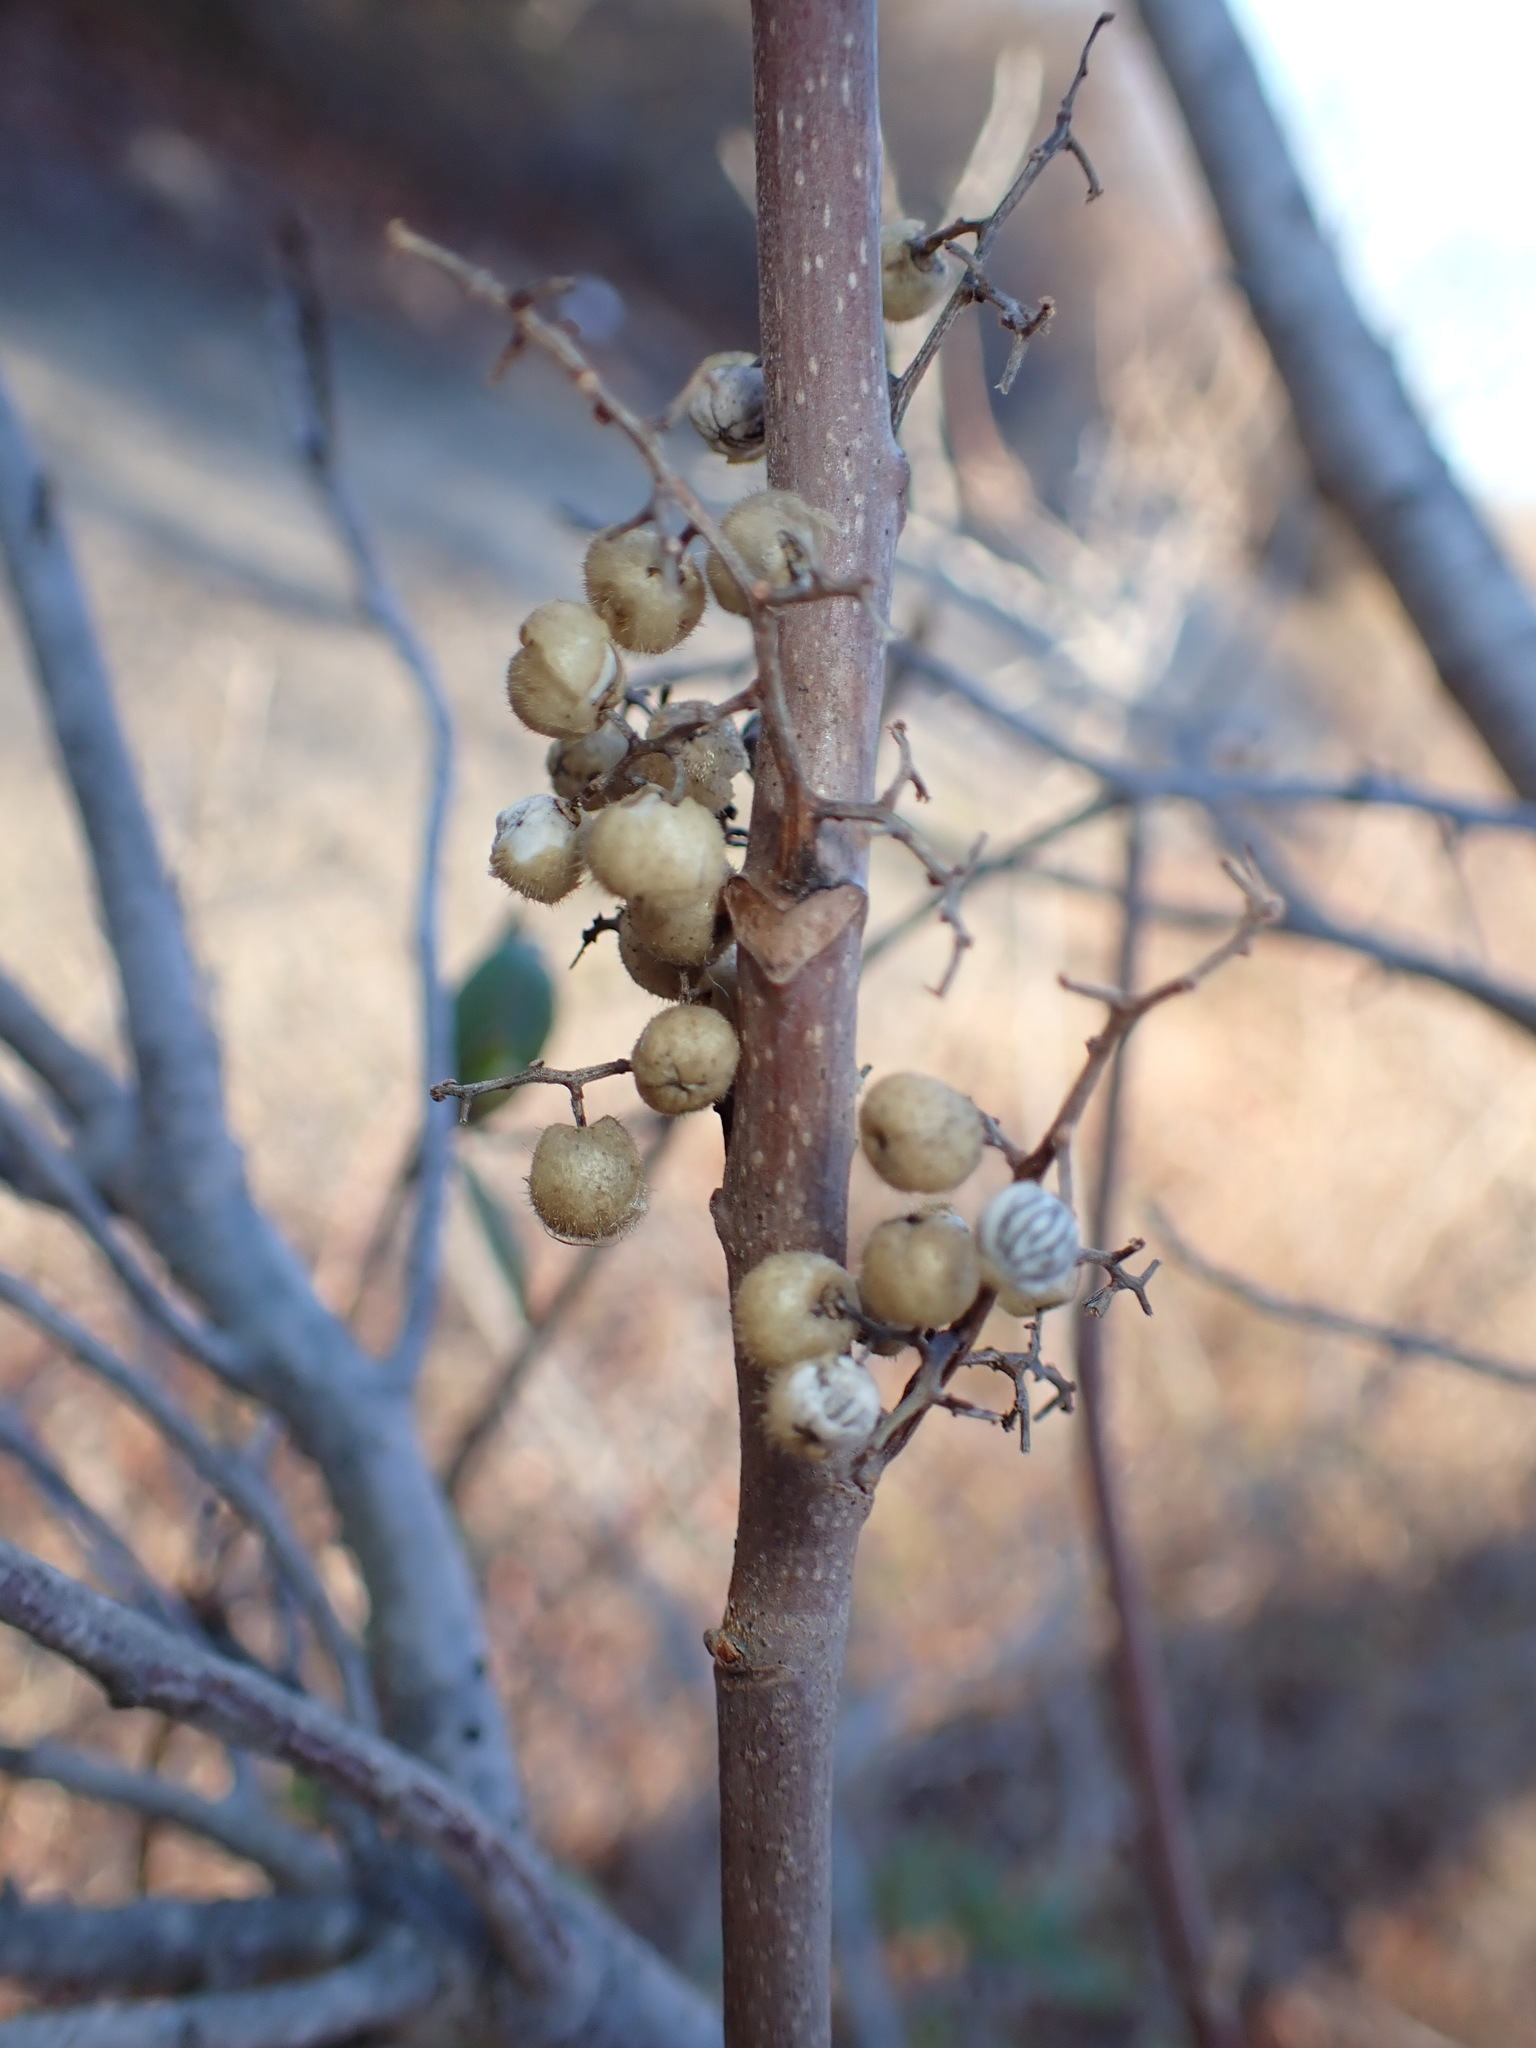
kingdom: Plantae
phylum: Tracheophyta
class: Magnoliopsida
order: Sapindales
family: Anacardiaceae
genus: Toxicodendron
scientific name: Toxicodendron radicans
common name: Poison ivy
